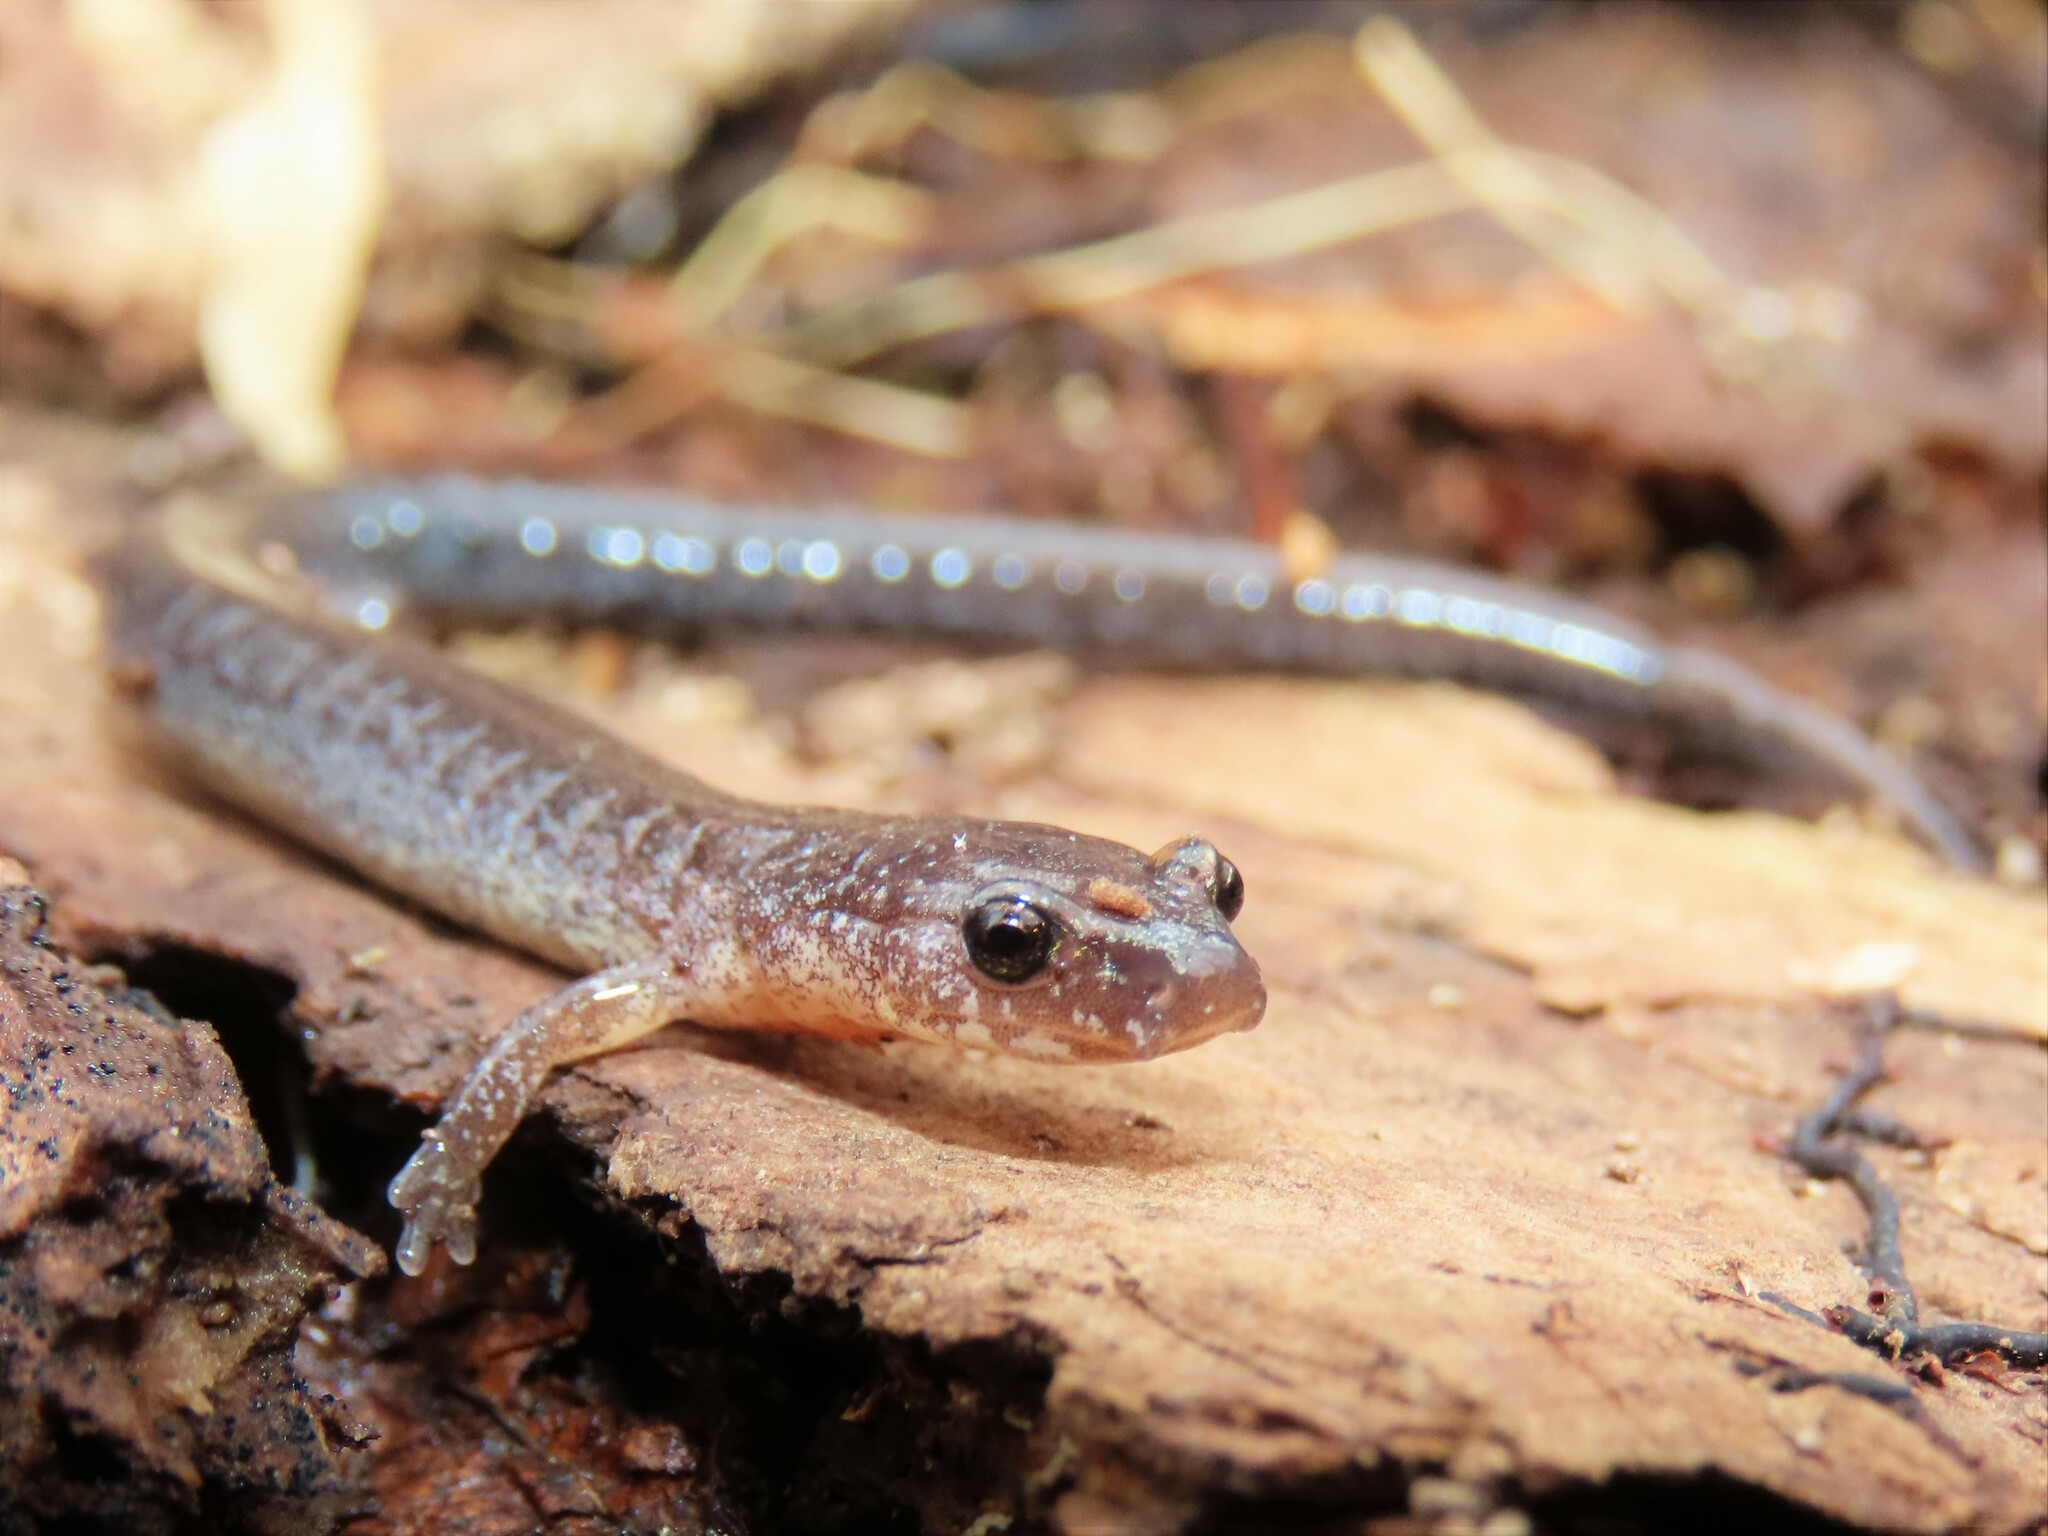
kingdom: Animalia
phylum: Chordata
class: Amphibia
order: Caudata
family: Plethodontidae
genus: Plethodon
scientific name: Plethodon cinereus
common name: Redback salamander
